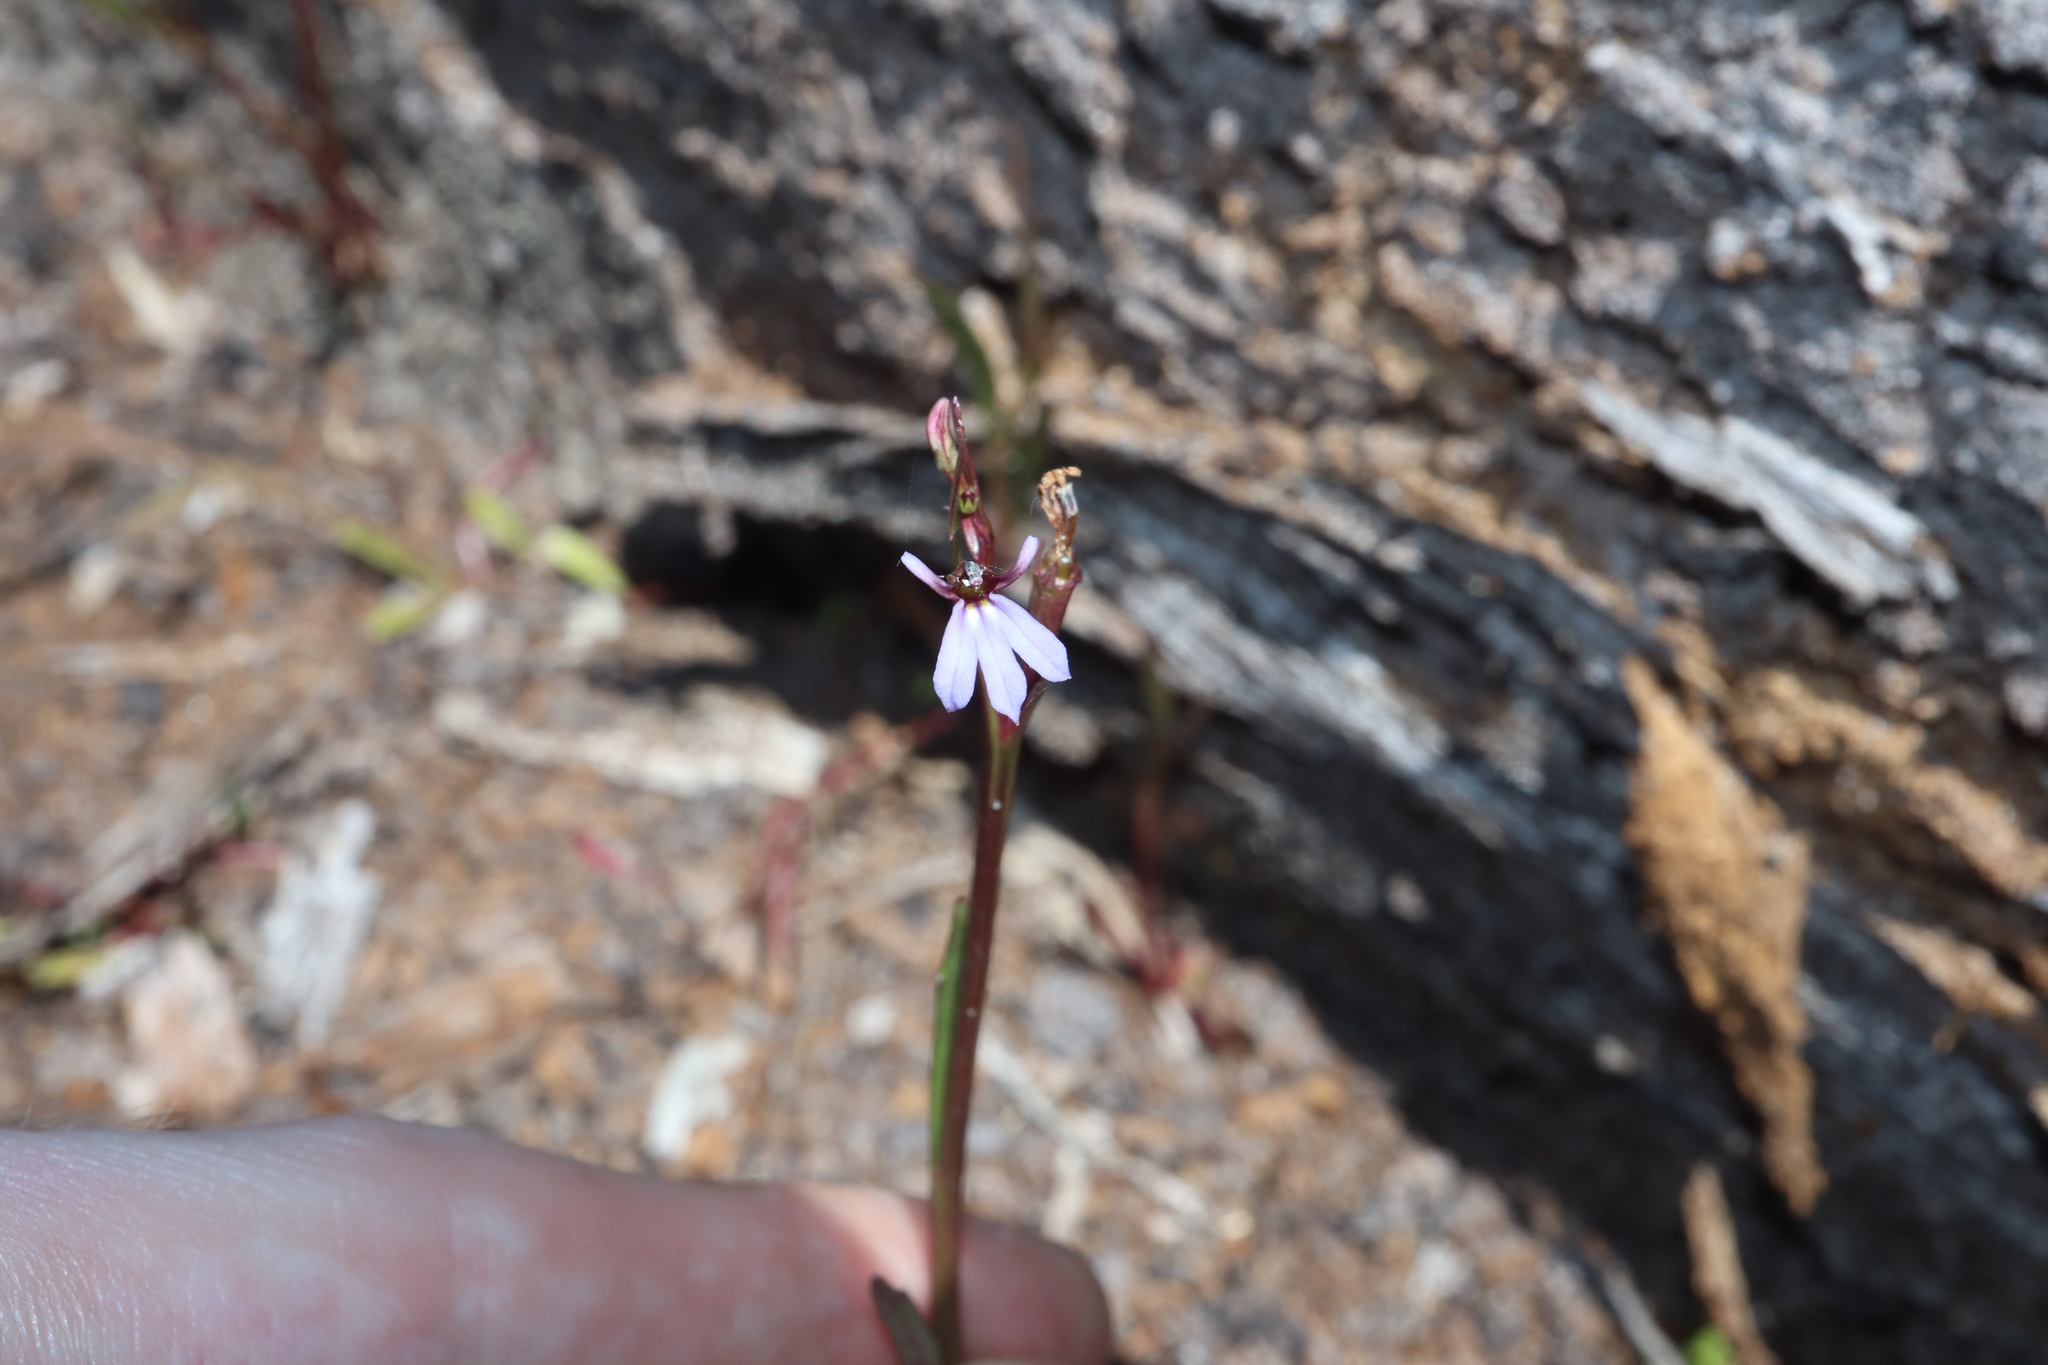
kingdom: Plantae
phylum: Tracheophyta
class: Magnoliopsida
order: Asterales
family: Campanulaceae
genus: Lobelia
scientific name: Lobelia anceps
